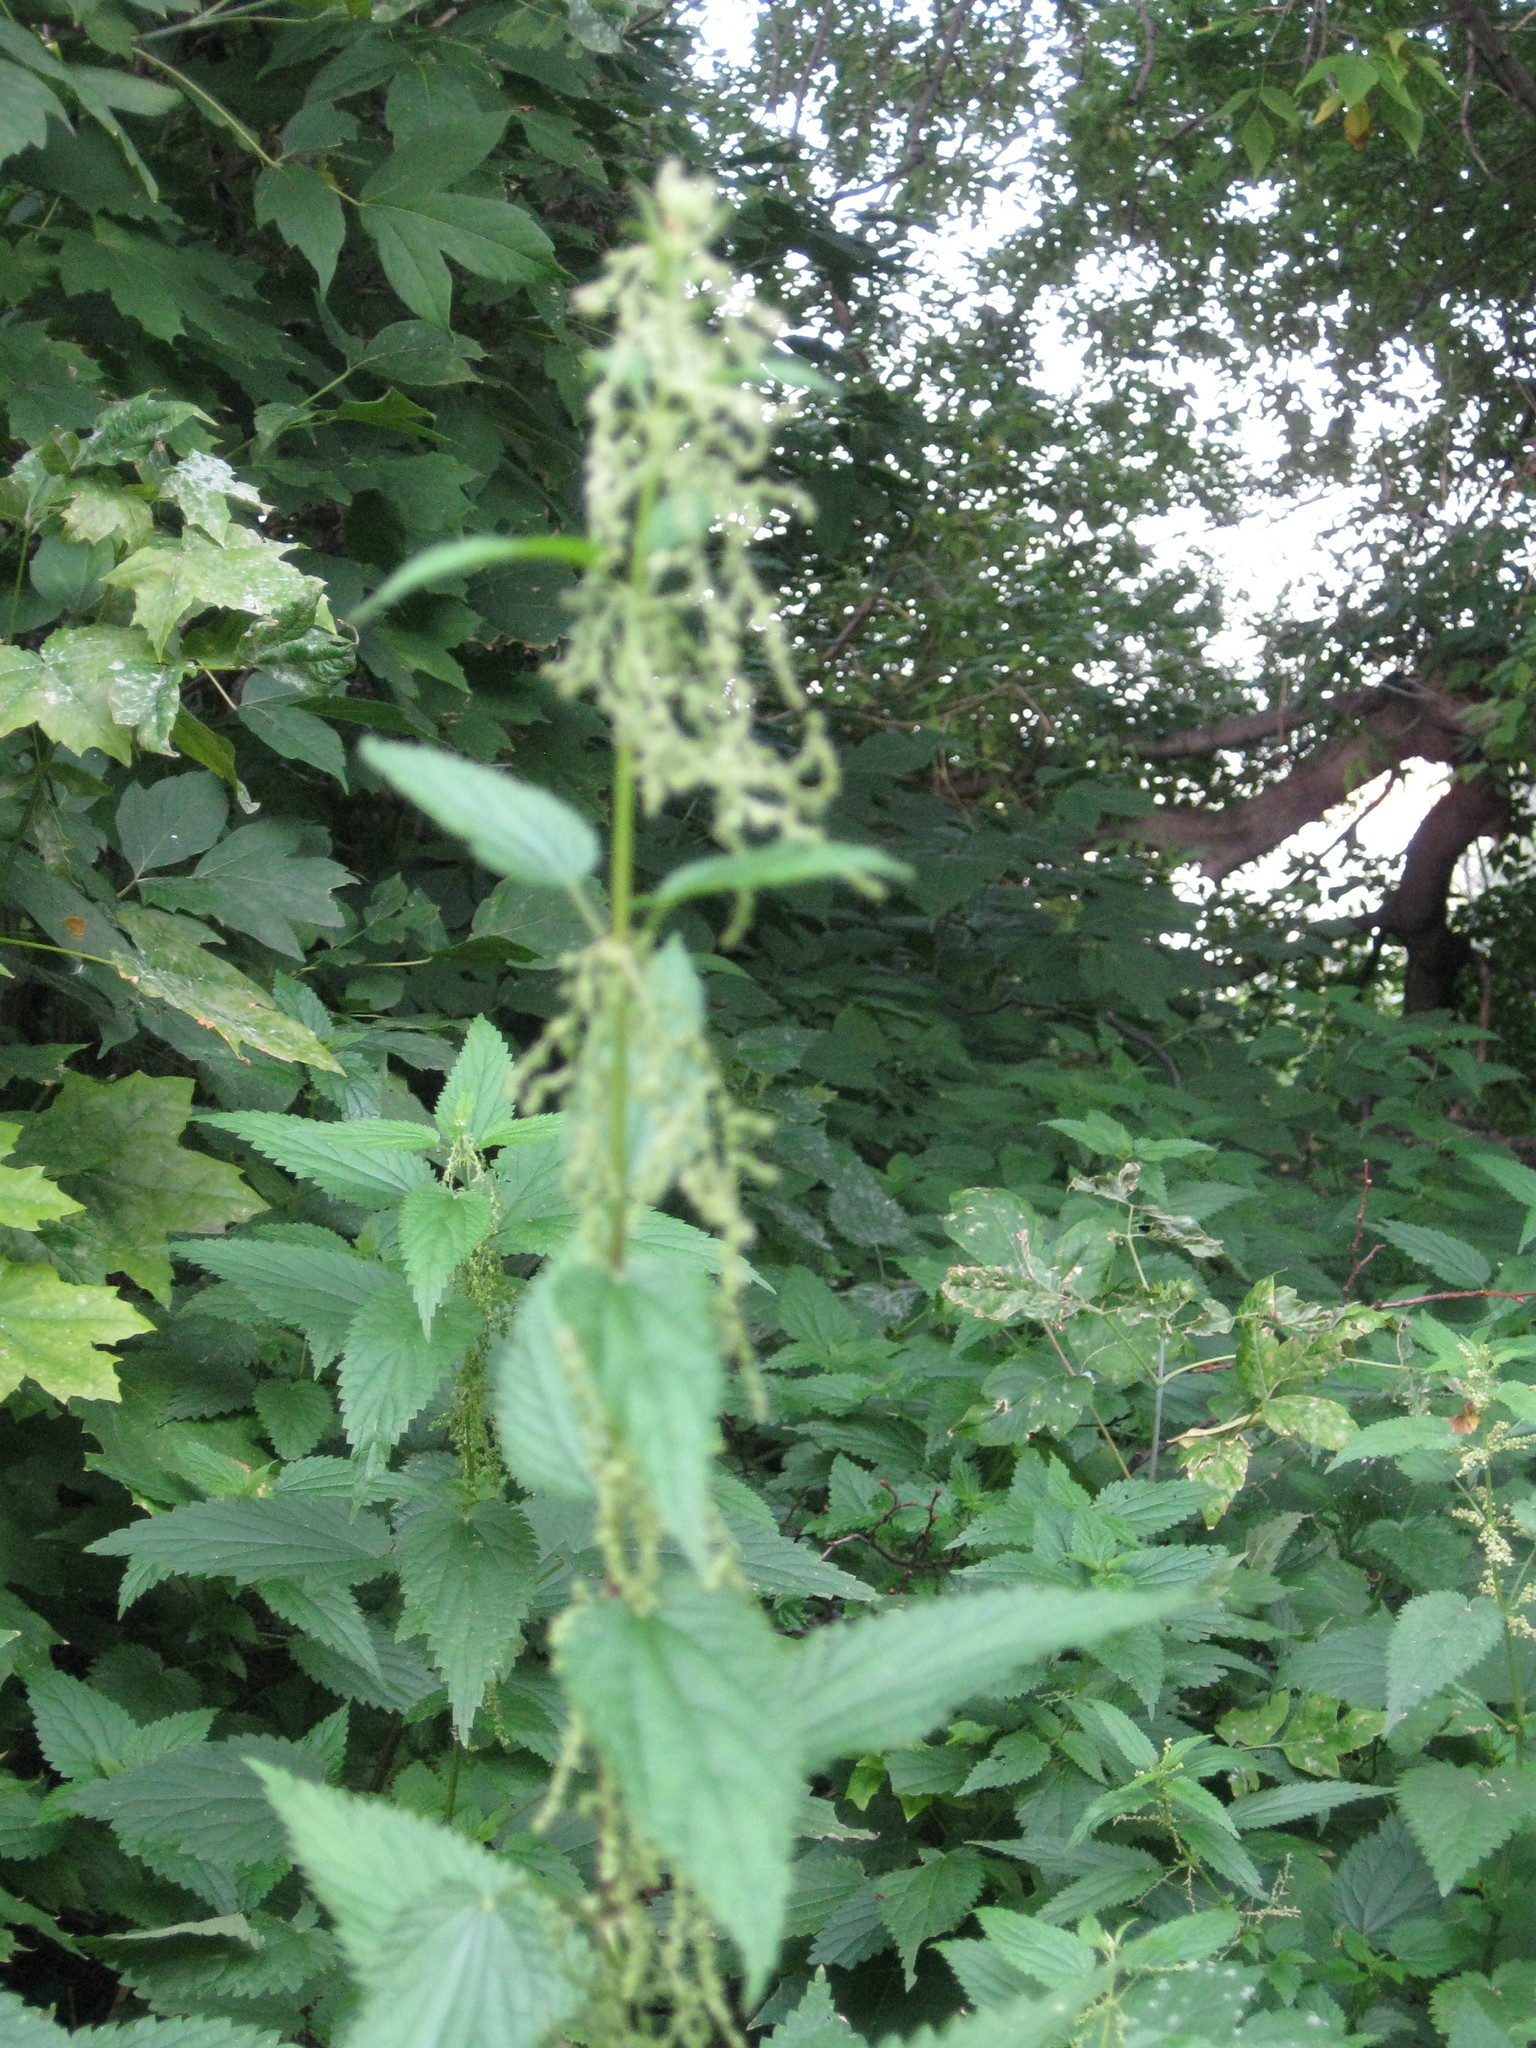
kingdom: Plantae
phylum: Tracheophyta
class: Magnoliopsida
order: Rosales
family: Urticaceae
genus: Urtica
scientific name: Urtica dioica
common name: Common nettle
